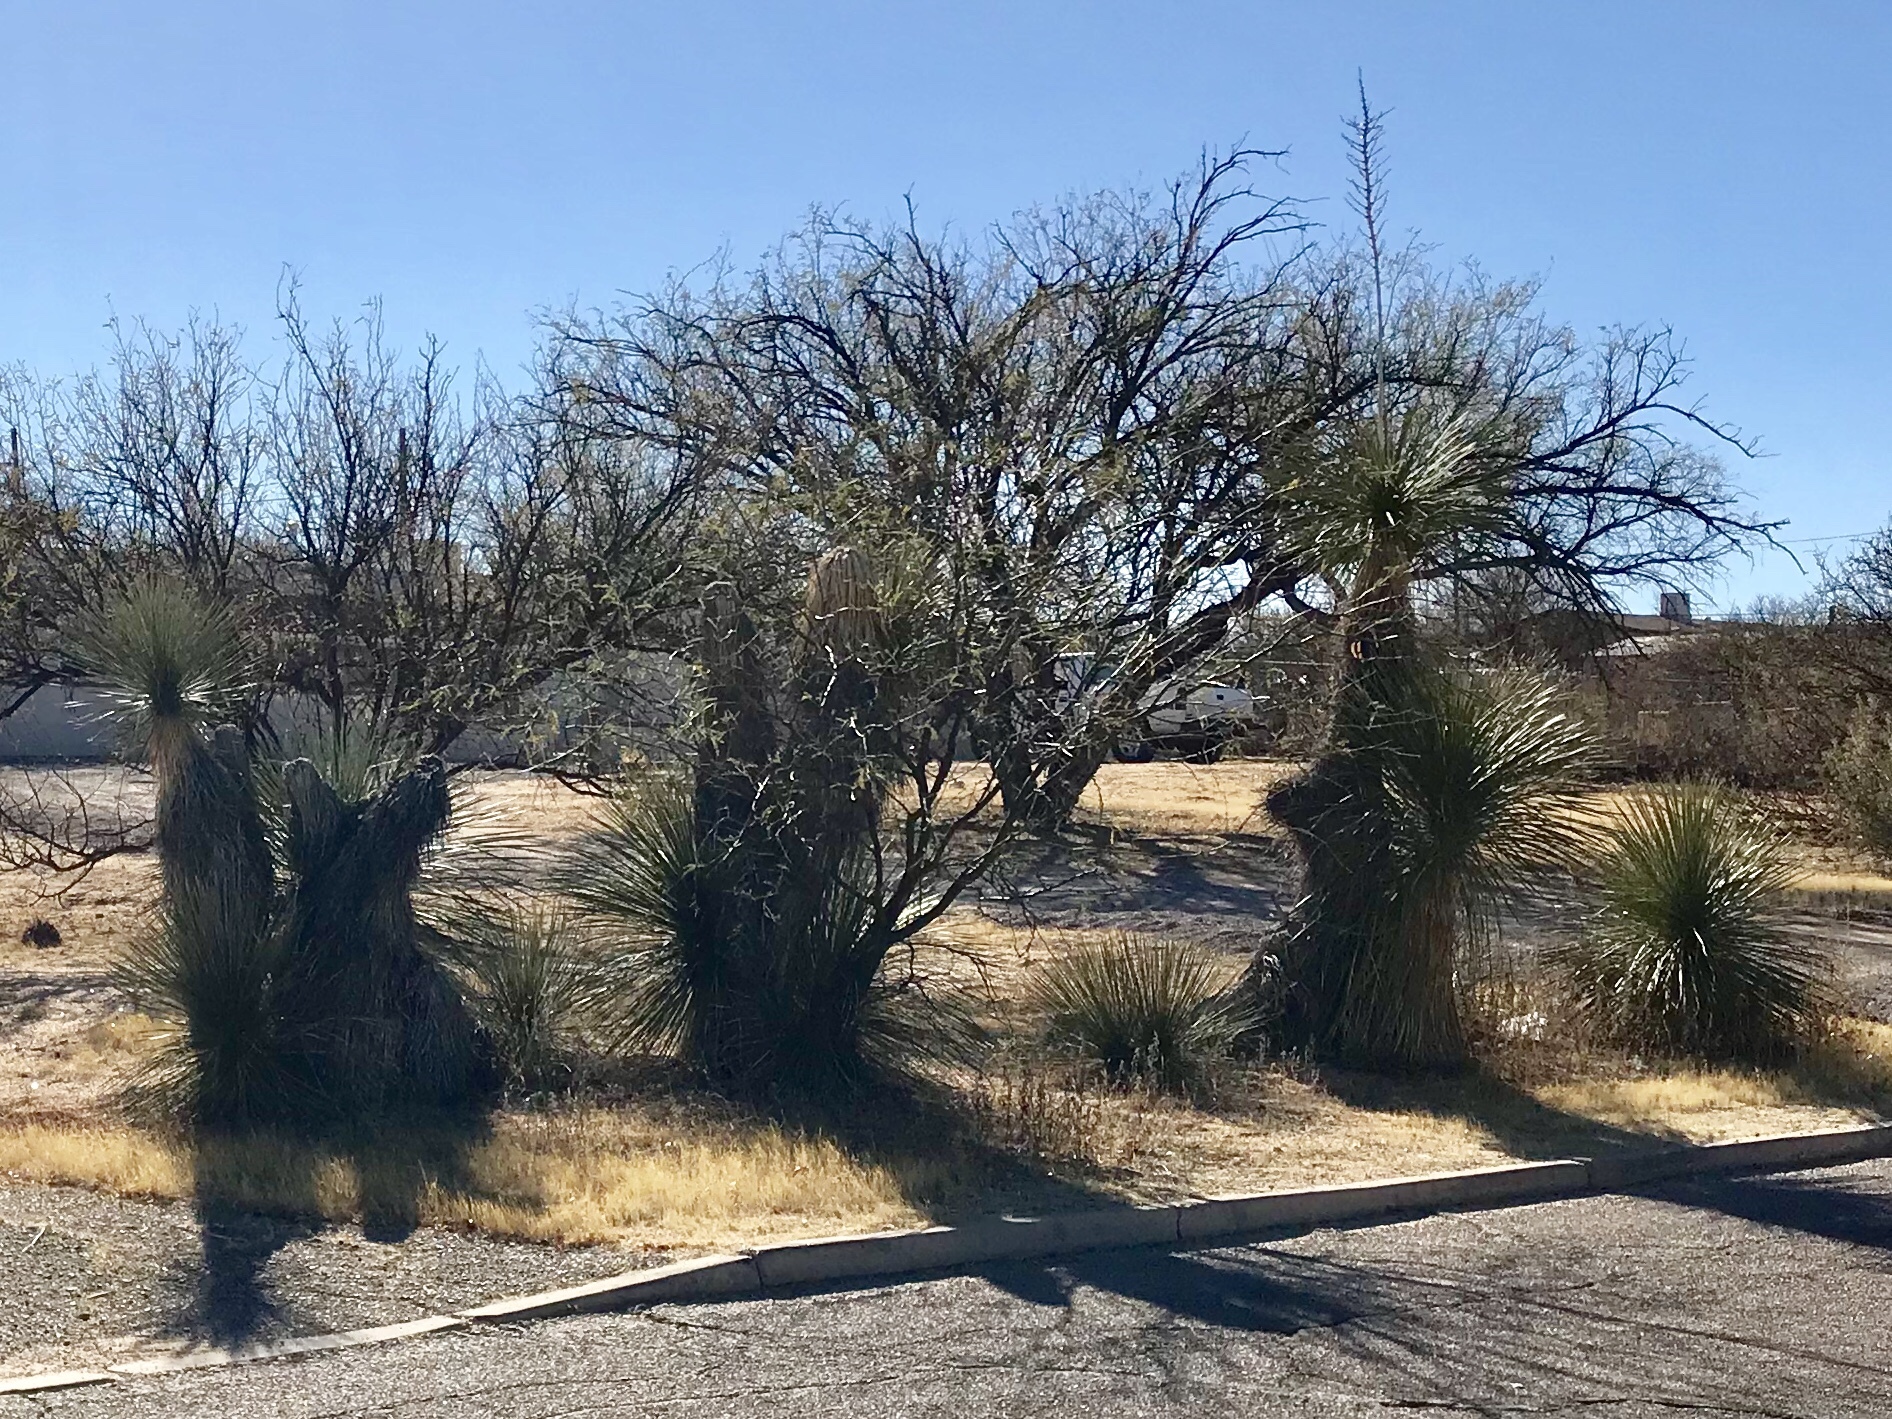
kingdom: Plantae
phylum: Tracheophyta
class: Liliopsida
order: Asparagales
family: Asparagaceae
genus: Yucca
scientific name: Yucca elata
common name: Palmella
